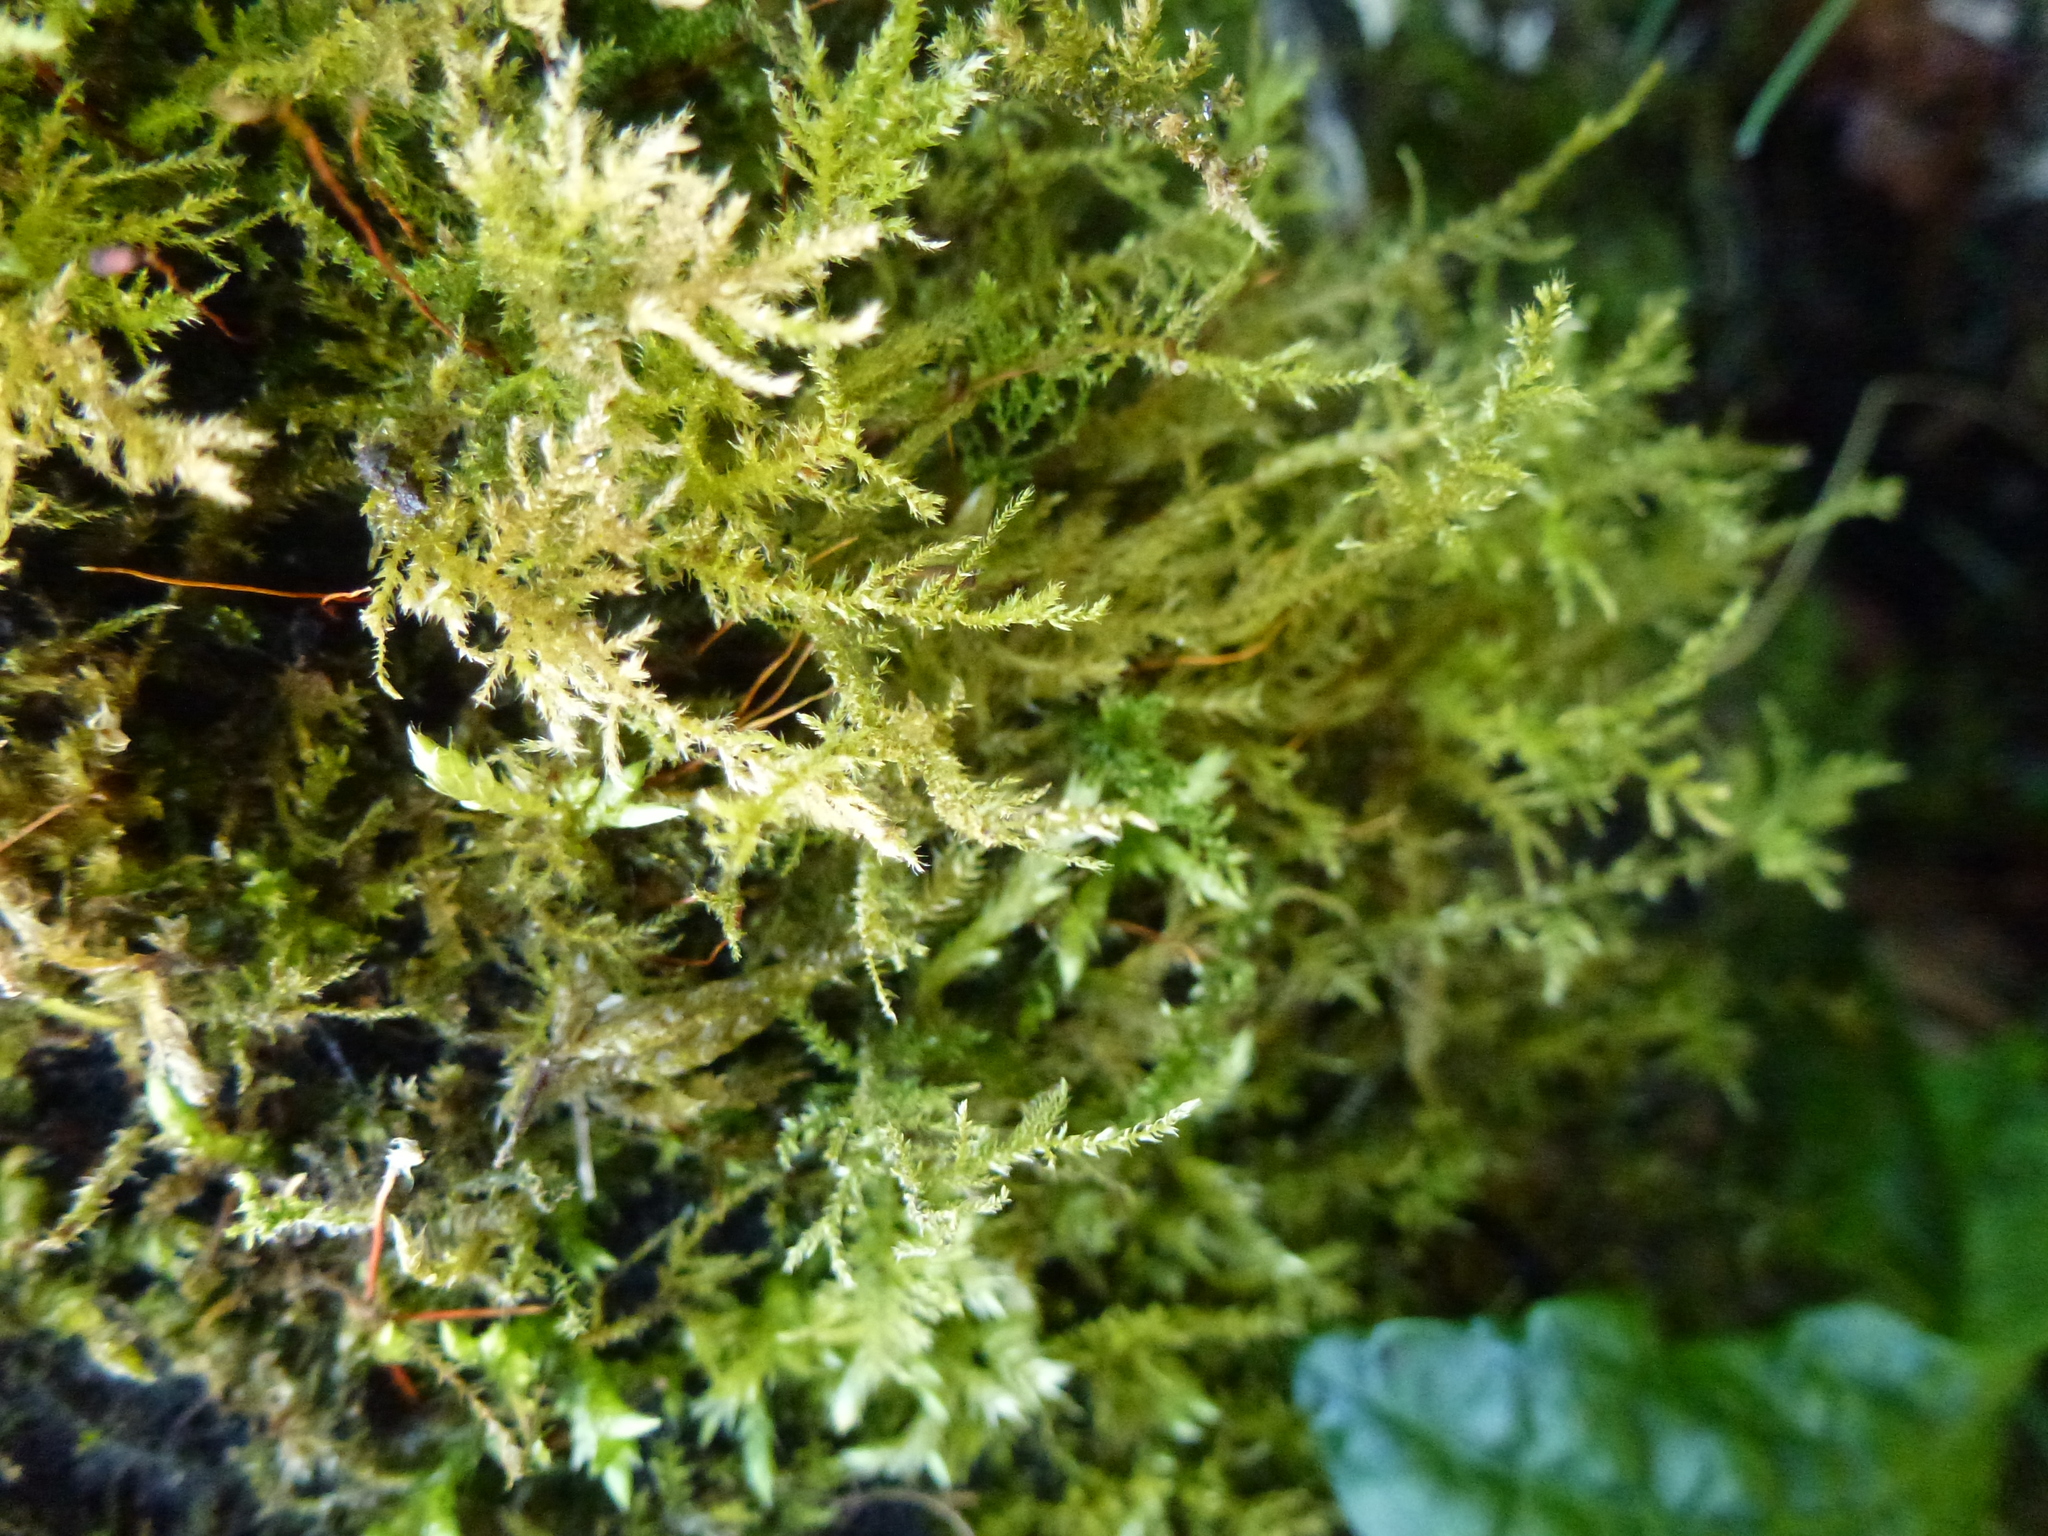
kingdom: Plantae
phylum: Bryophyta
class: Bryopsida
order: Hypnales
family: Brachytheciaceae
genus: Kindbergia
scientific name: Kindbergia praelonga
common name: Slender beaked moss
